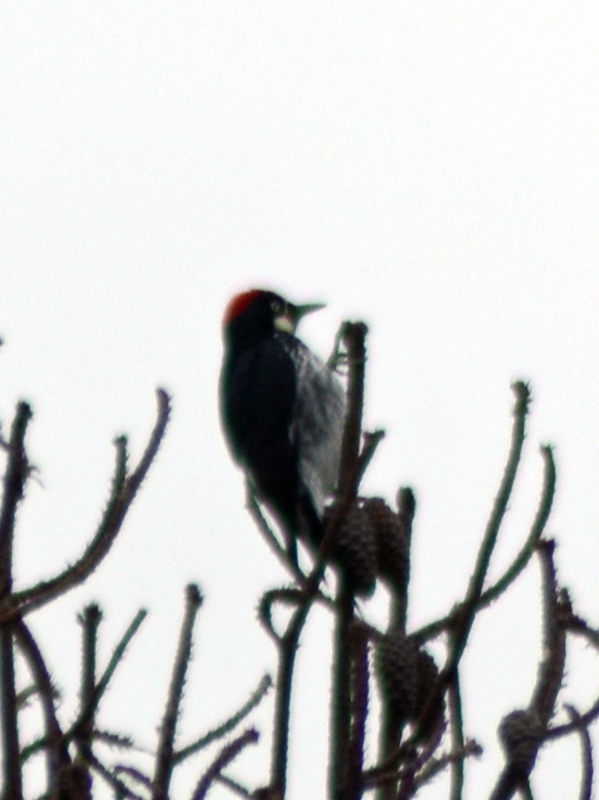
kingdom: Animalia
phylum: Chordata
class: Aves
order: Piciformes
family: Picidae
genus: Melanerpes
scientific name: Melanerpes formicivorus
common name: Acorn woodpecker
